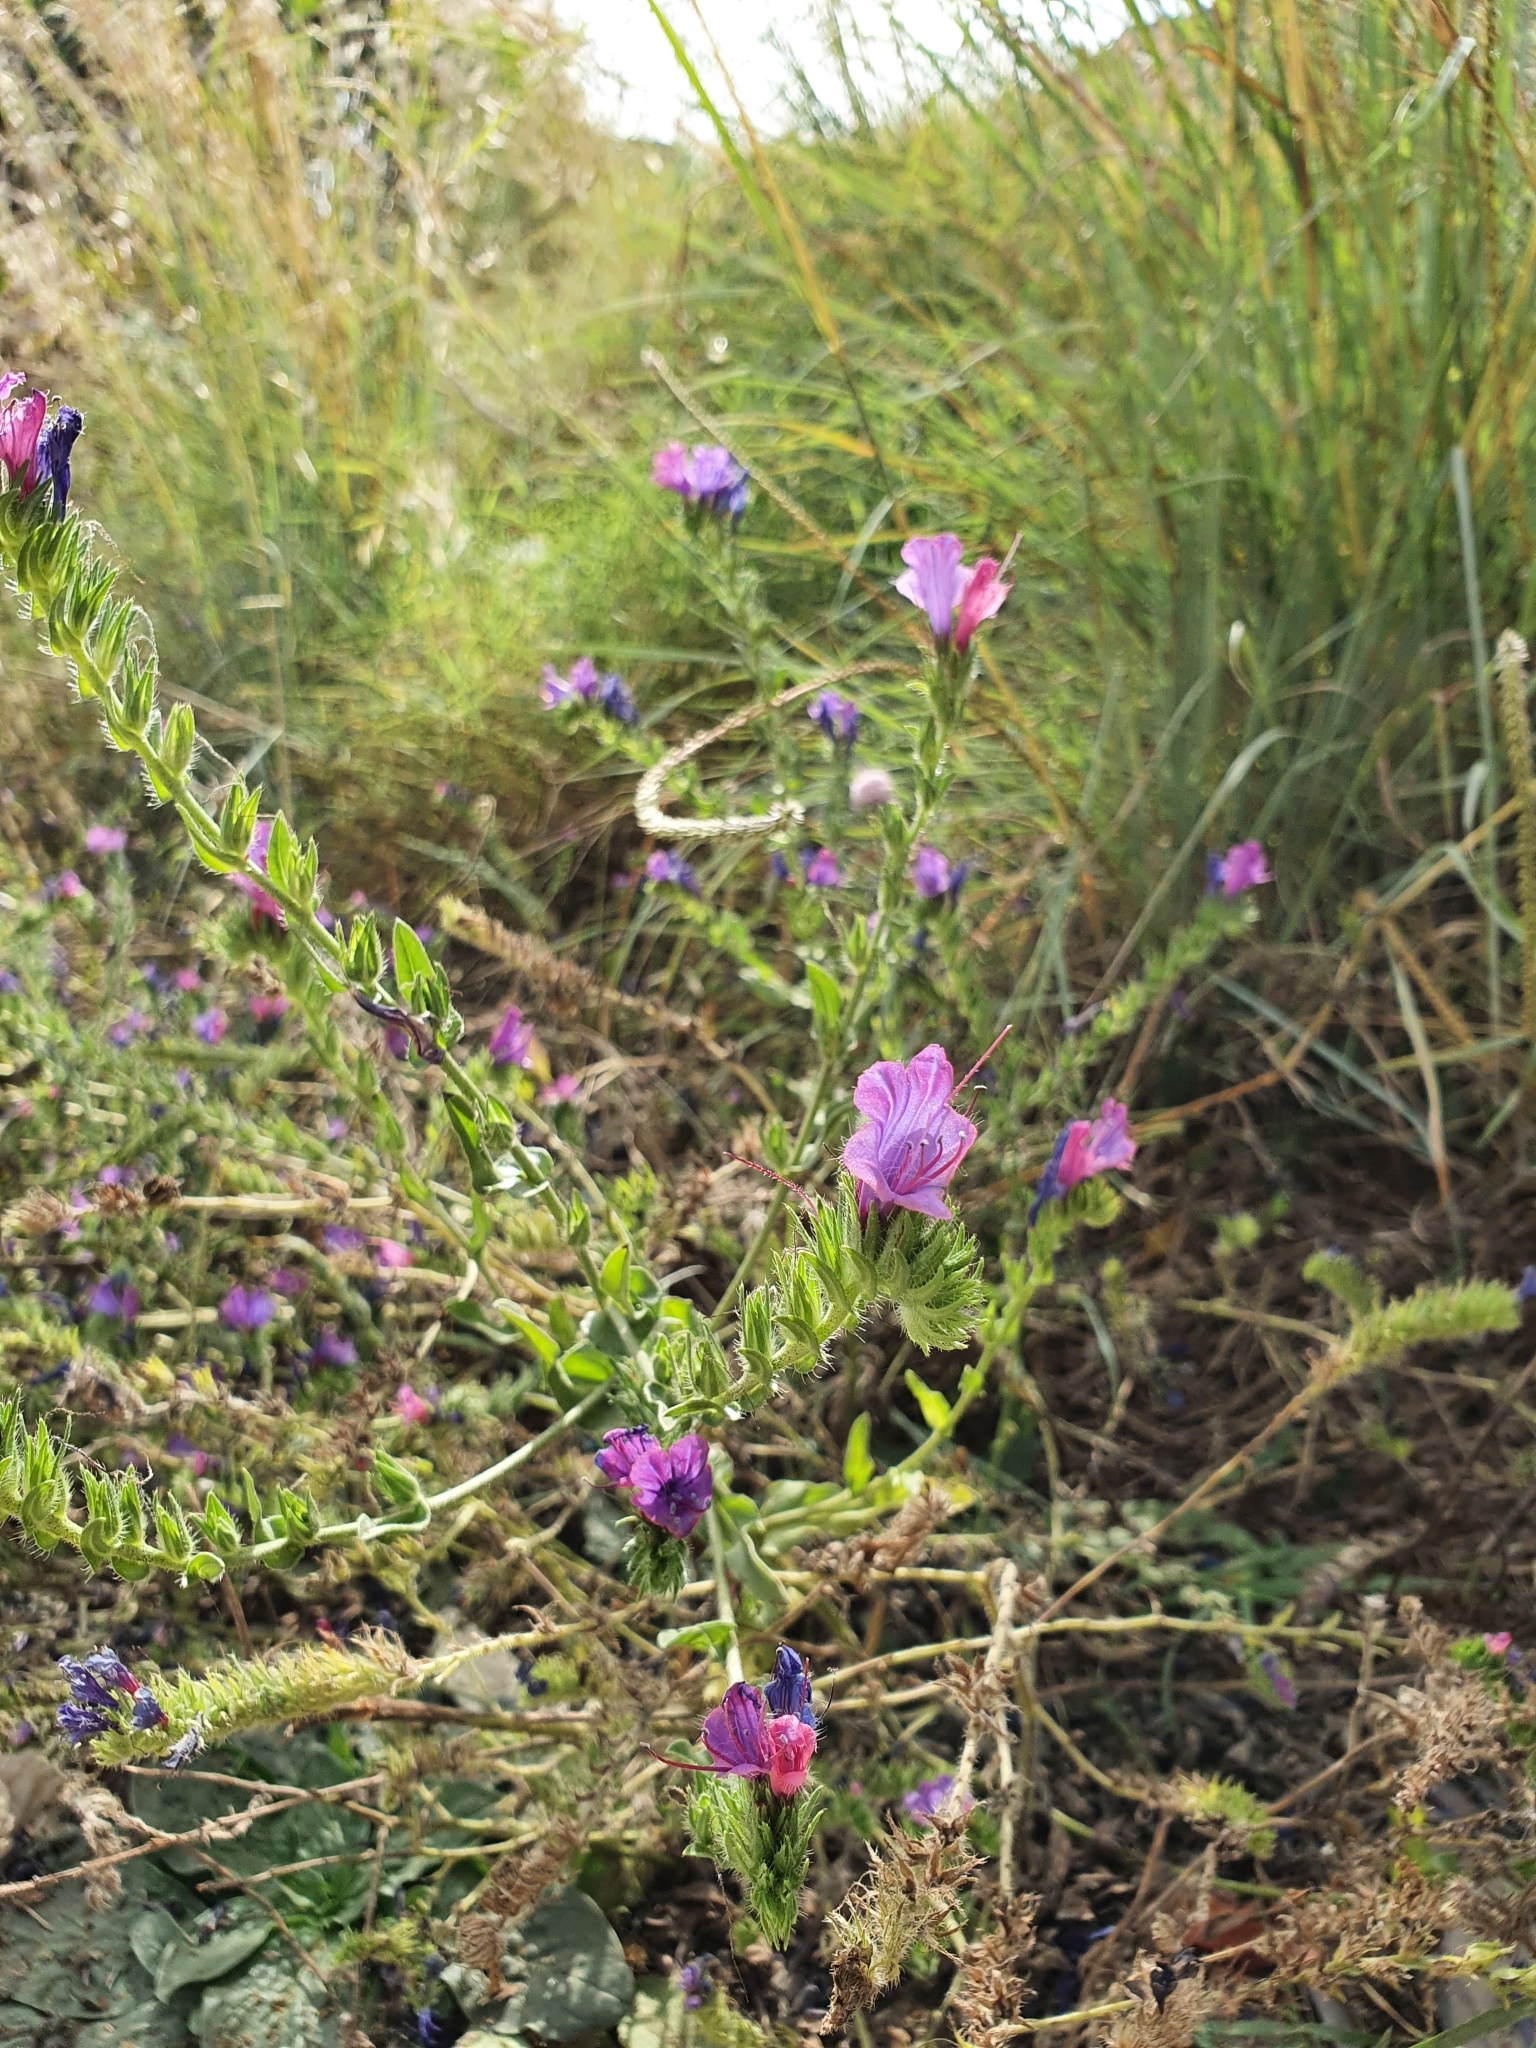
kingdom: Plantae
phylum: Tracheophyta
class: Magnoliopsida
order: Boraginales
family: Boraginaceae
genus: Echium
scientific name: Echium plantagineum
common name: Purple viper's-bugloss
